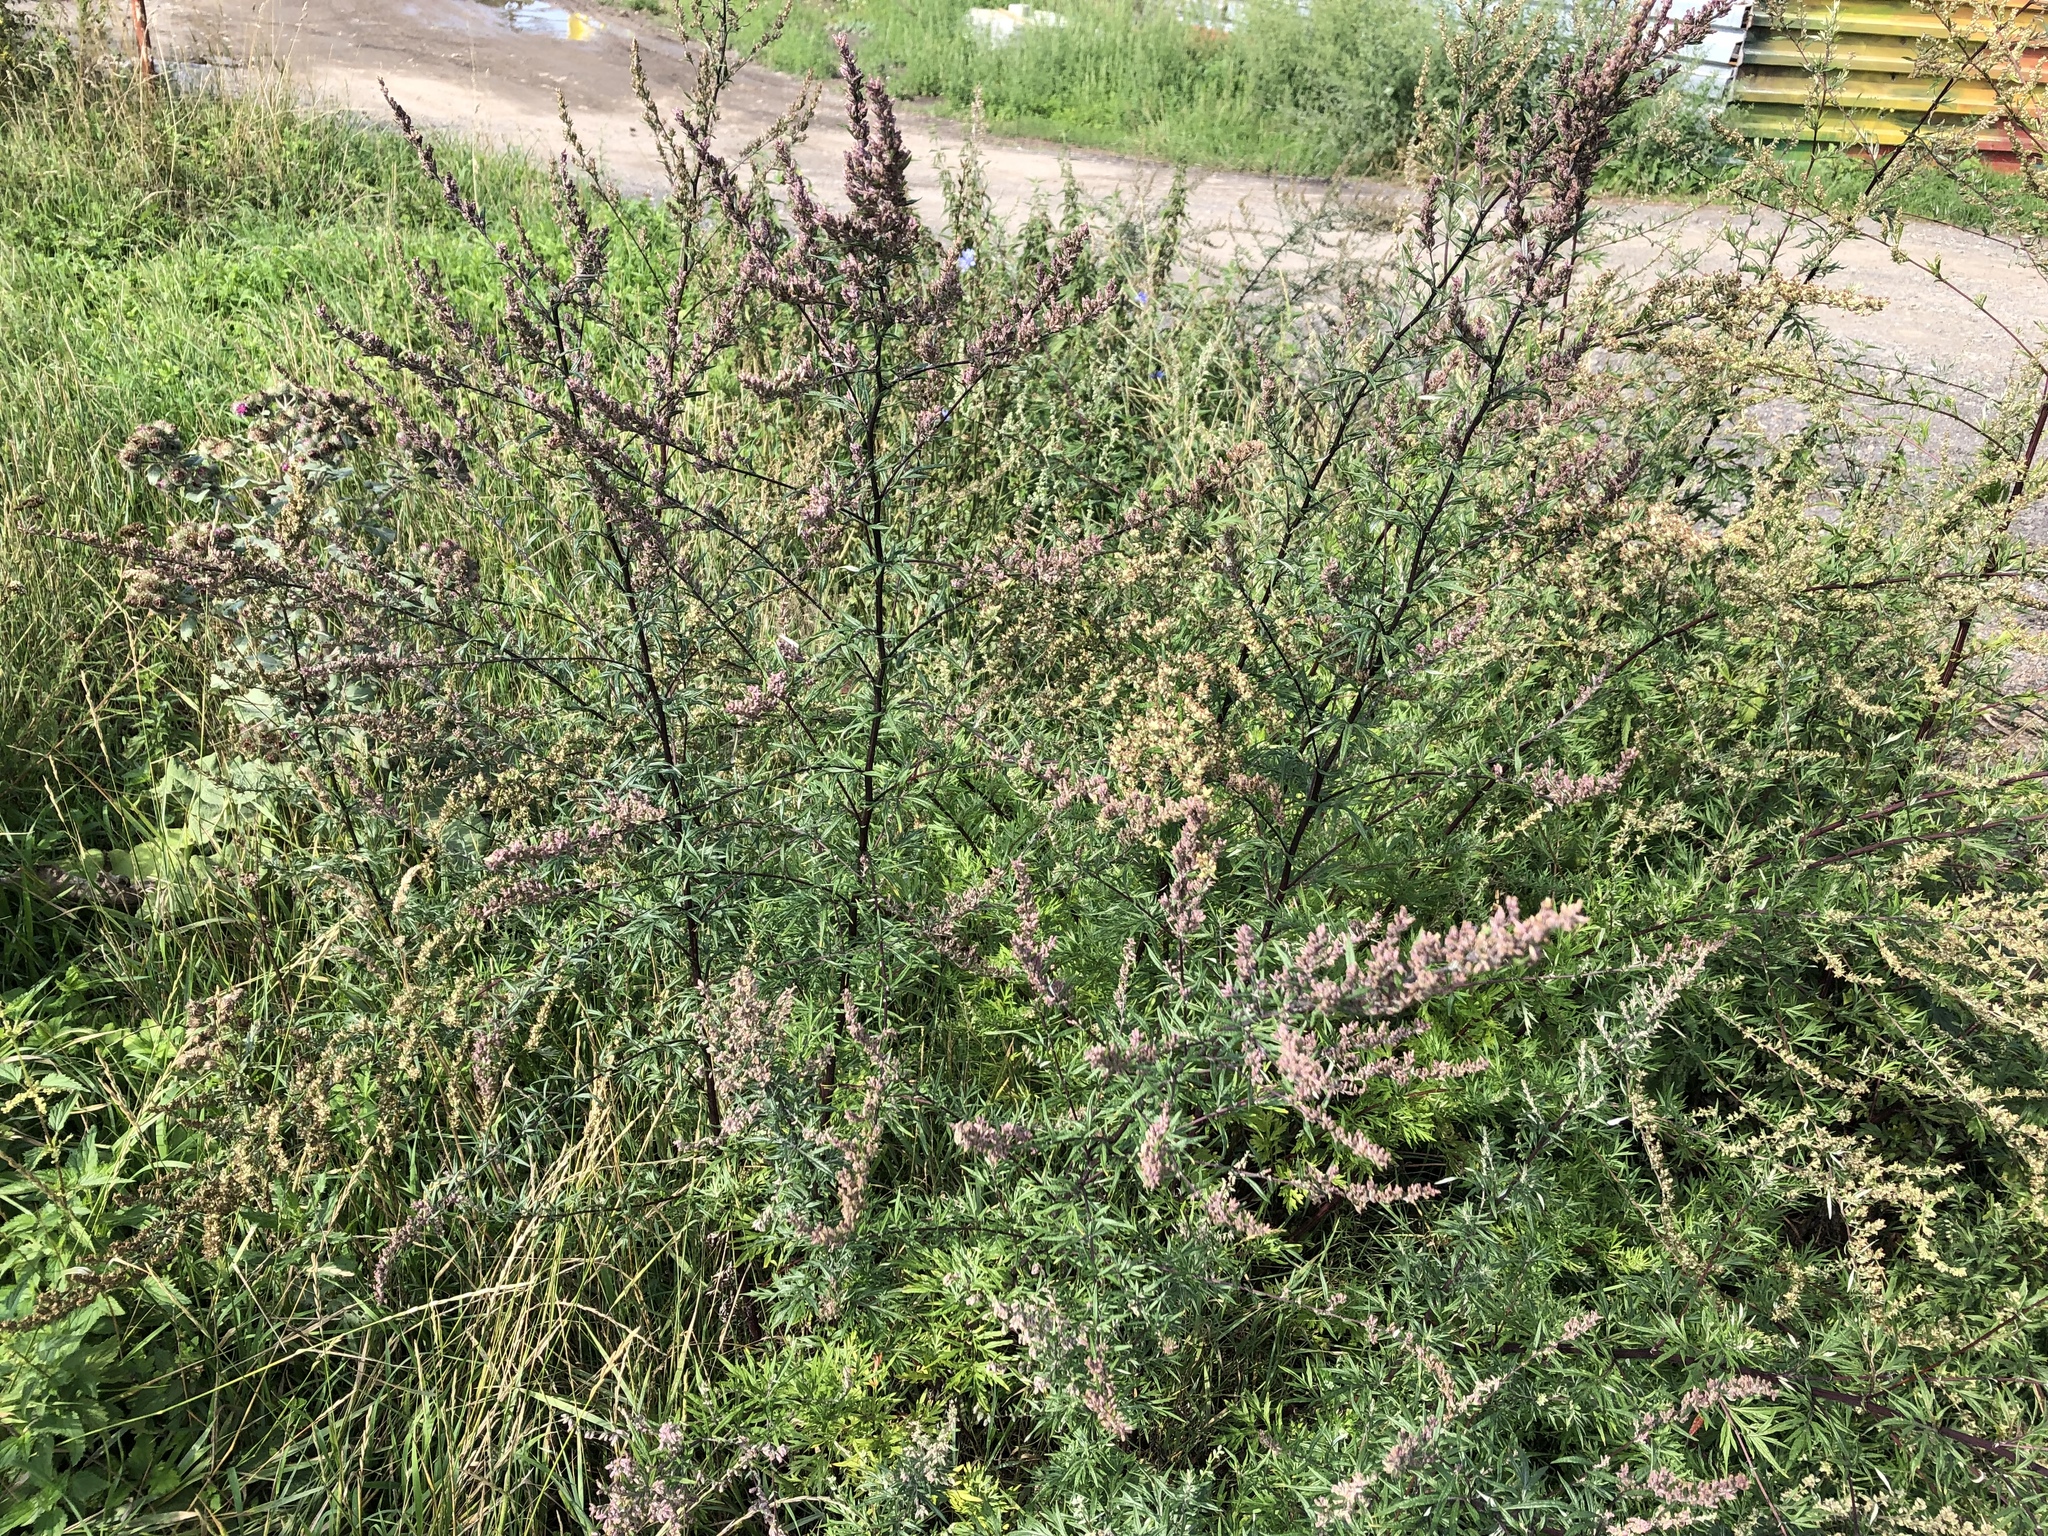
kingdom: Plantae
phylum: Tracheophyta
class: Magnoliopsida
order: Asterales
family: Asteraceae
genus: Artemisia
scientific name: Artemisia vulgaris
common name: Mugwort
